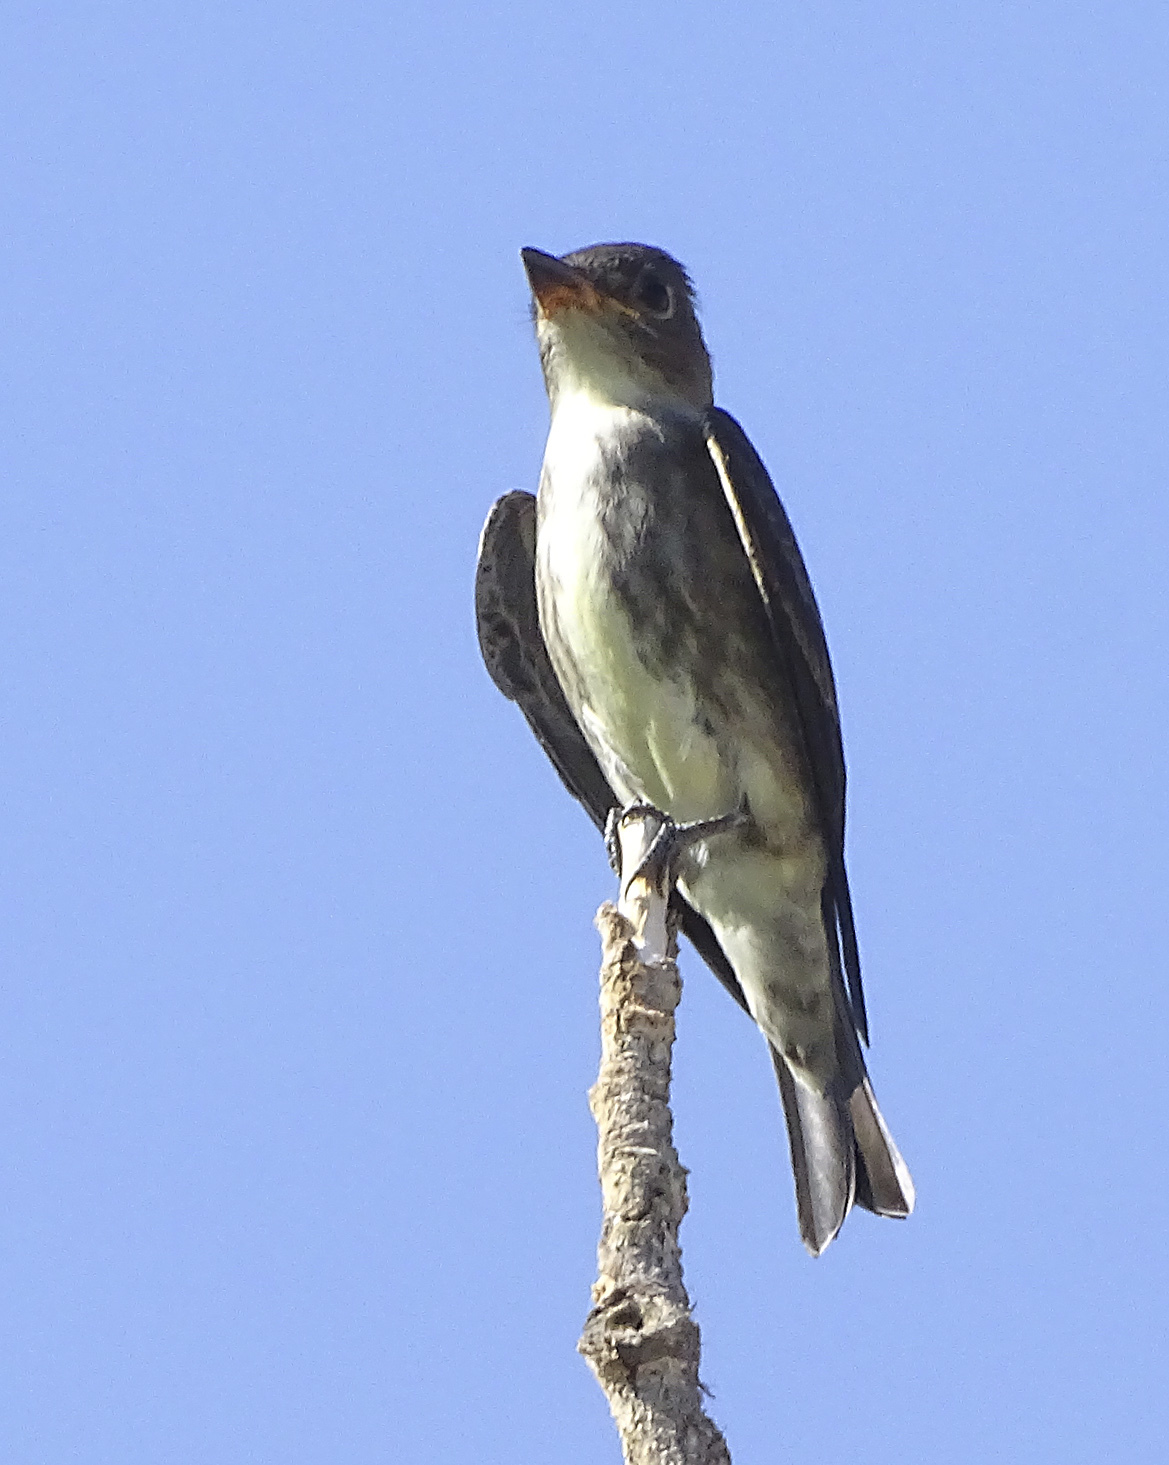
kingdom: Animalia
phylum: Chordata
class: Aves
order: Passeriformes
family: Tyrannidae
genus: Contopus
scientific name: Contopus cooperi
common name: Olive-sided flycatcher
